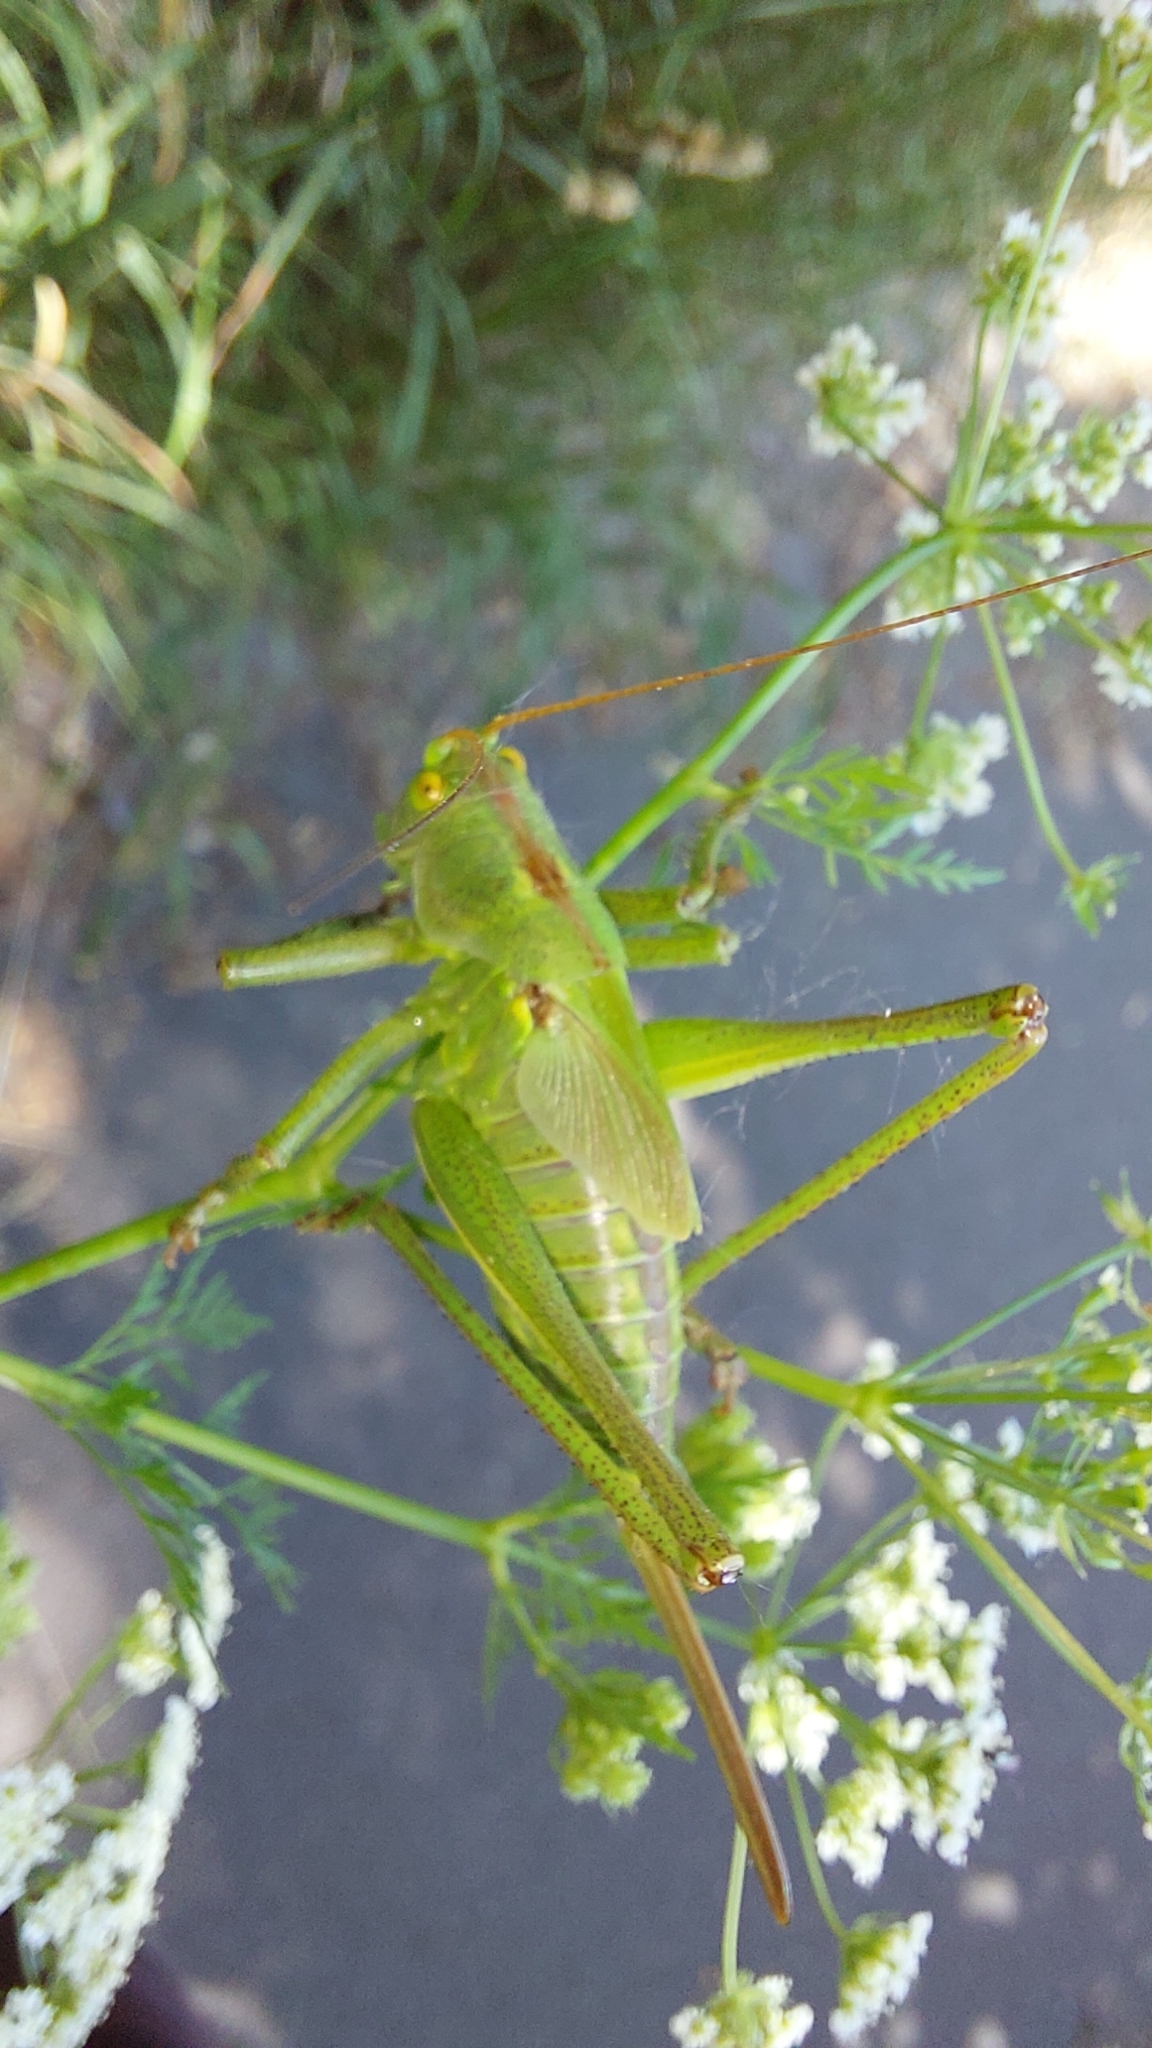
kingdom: Animalia
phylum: Arthropoda
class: Insecta
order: Orthoptera
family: Tettigoniidae
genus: Tettigonia
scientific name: Tettigonia viridissima
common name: Great green bush-cricket
